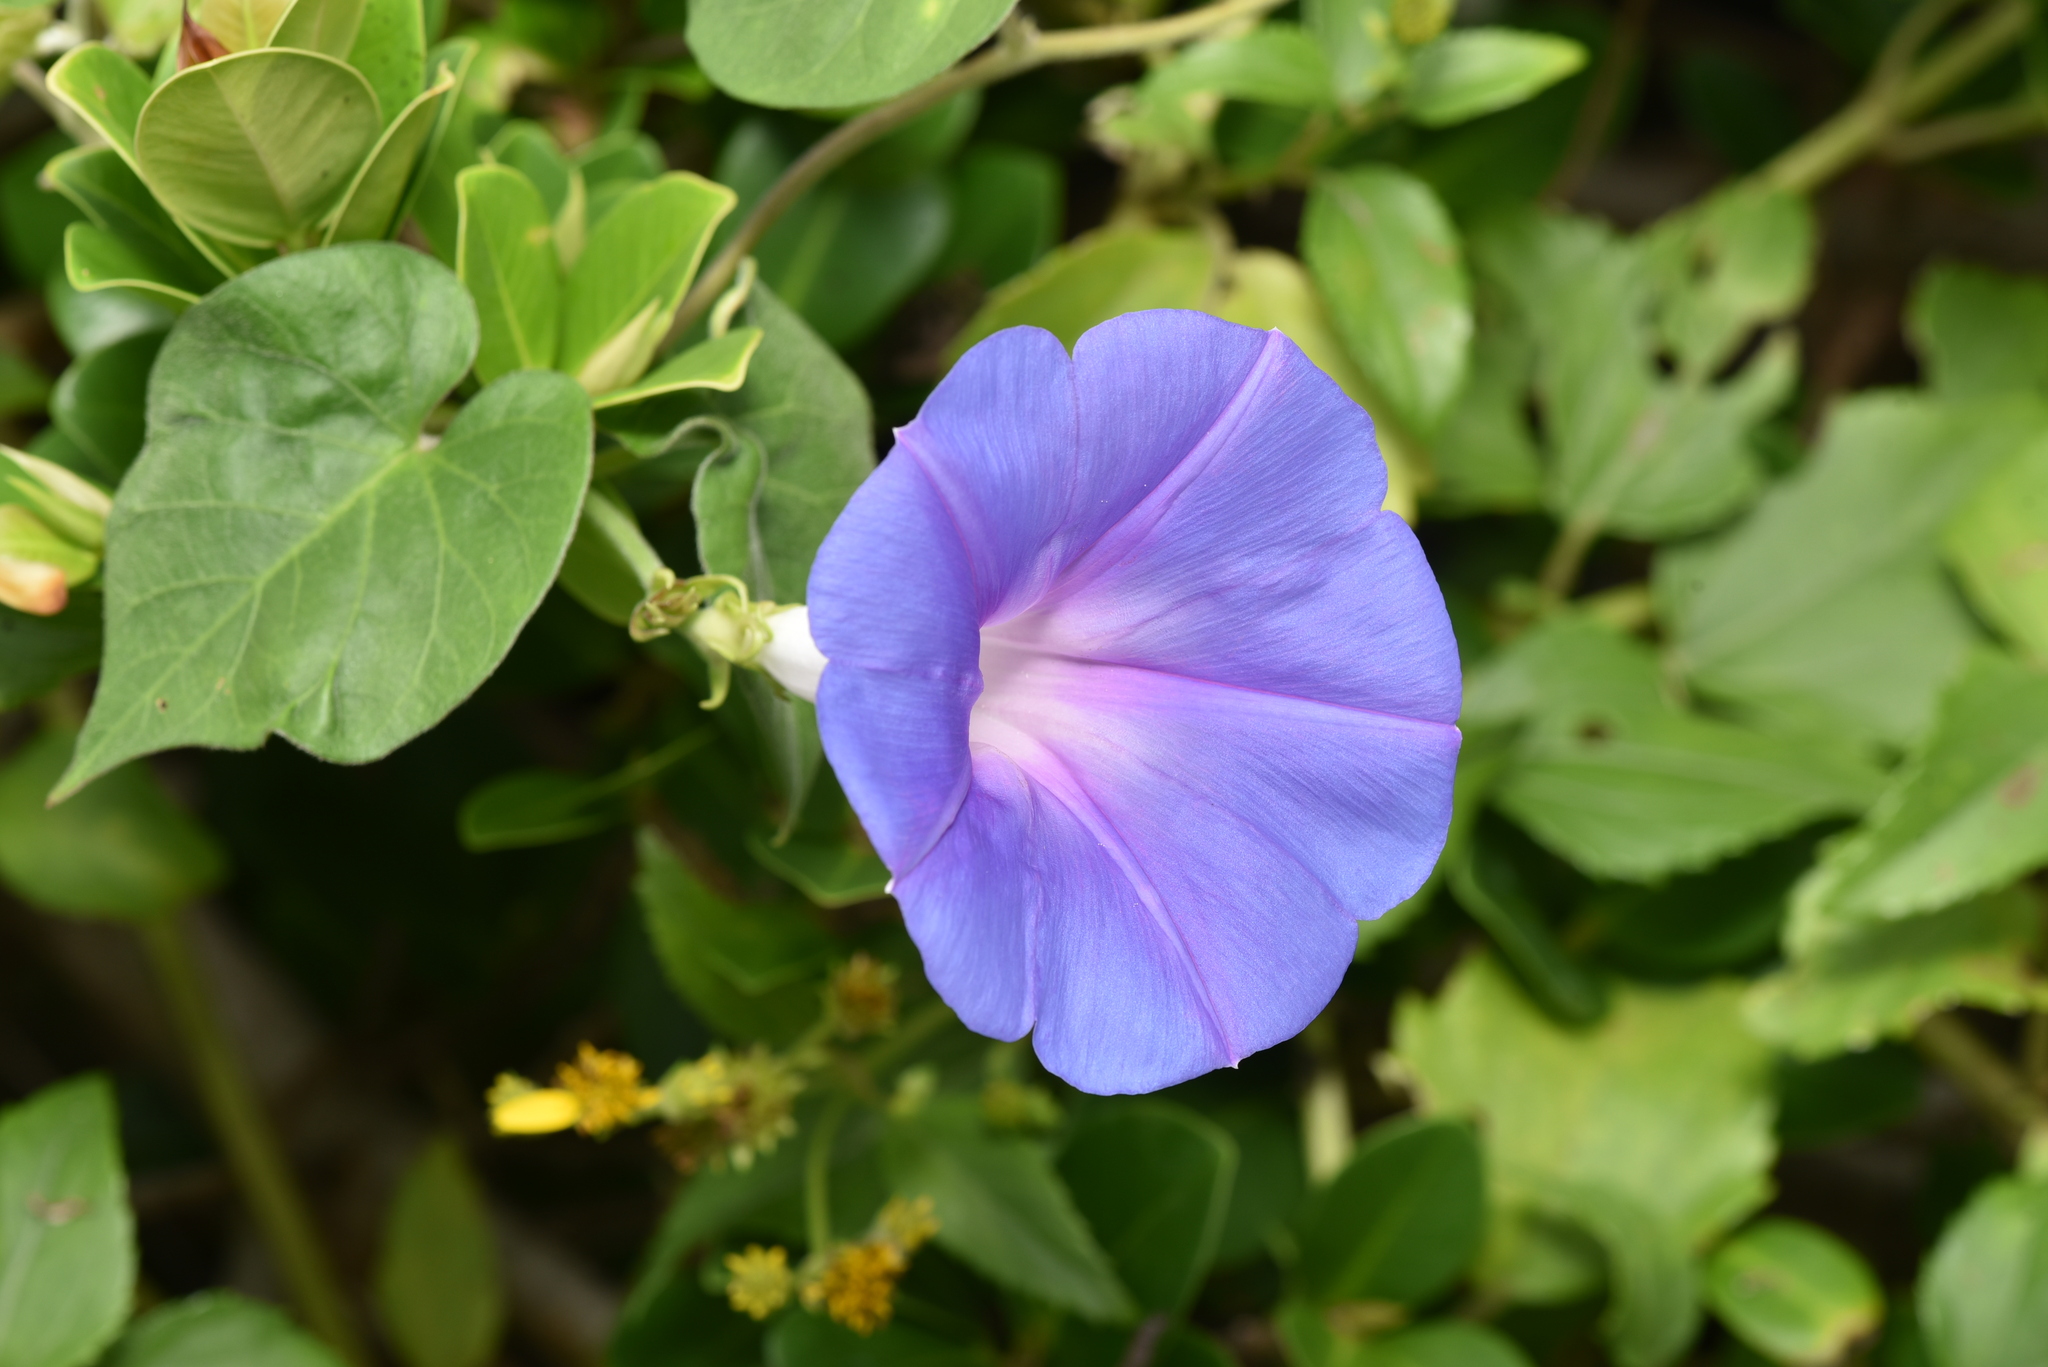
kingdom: Plantae
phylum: Tracheophyta
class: Magnoliopsida
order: Solanales
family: Convolvulaceae
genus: Ipomoea
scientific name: Ipomoea indica
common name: Blue dawnflower
